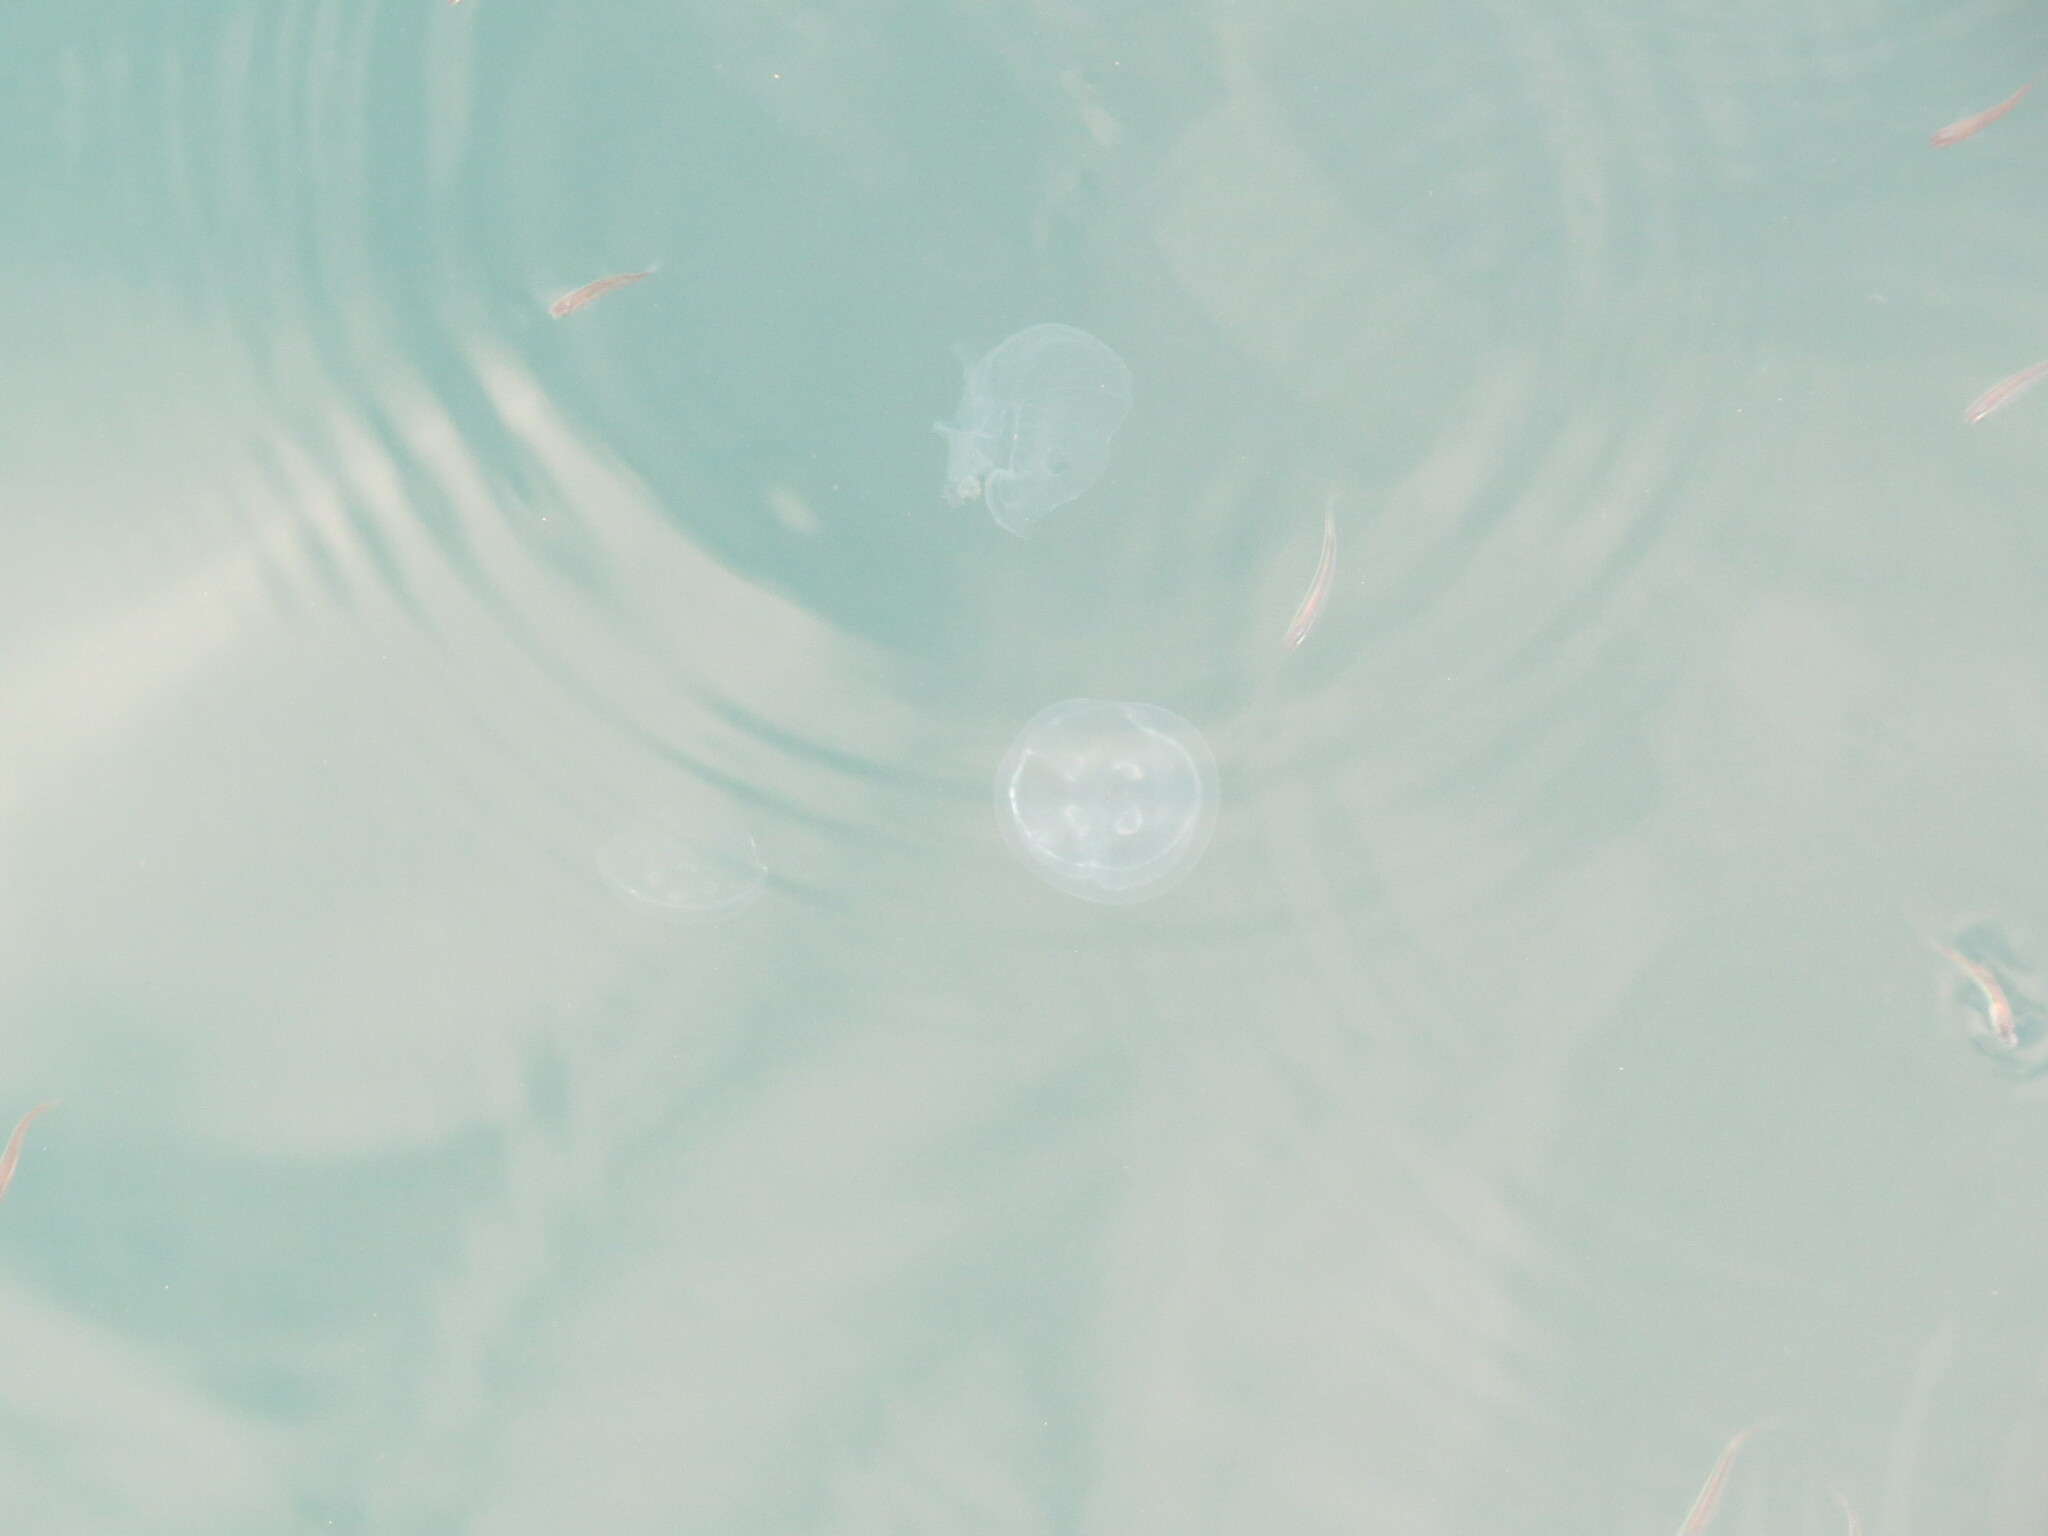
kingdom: Animalia
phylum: Cnidaria
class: Scyphozoa
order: Semaeostomeae
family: Ulmaridae
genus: Aurelia
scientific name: Aurelia aurita
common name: Moon jellyfish
